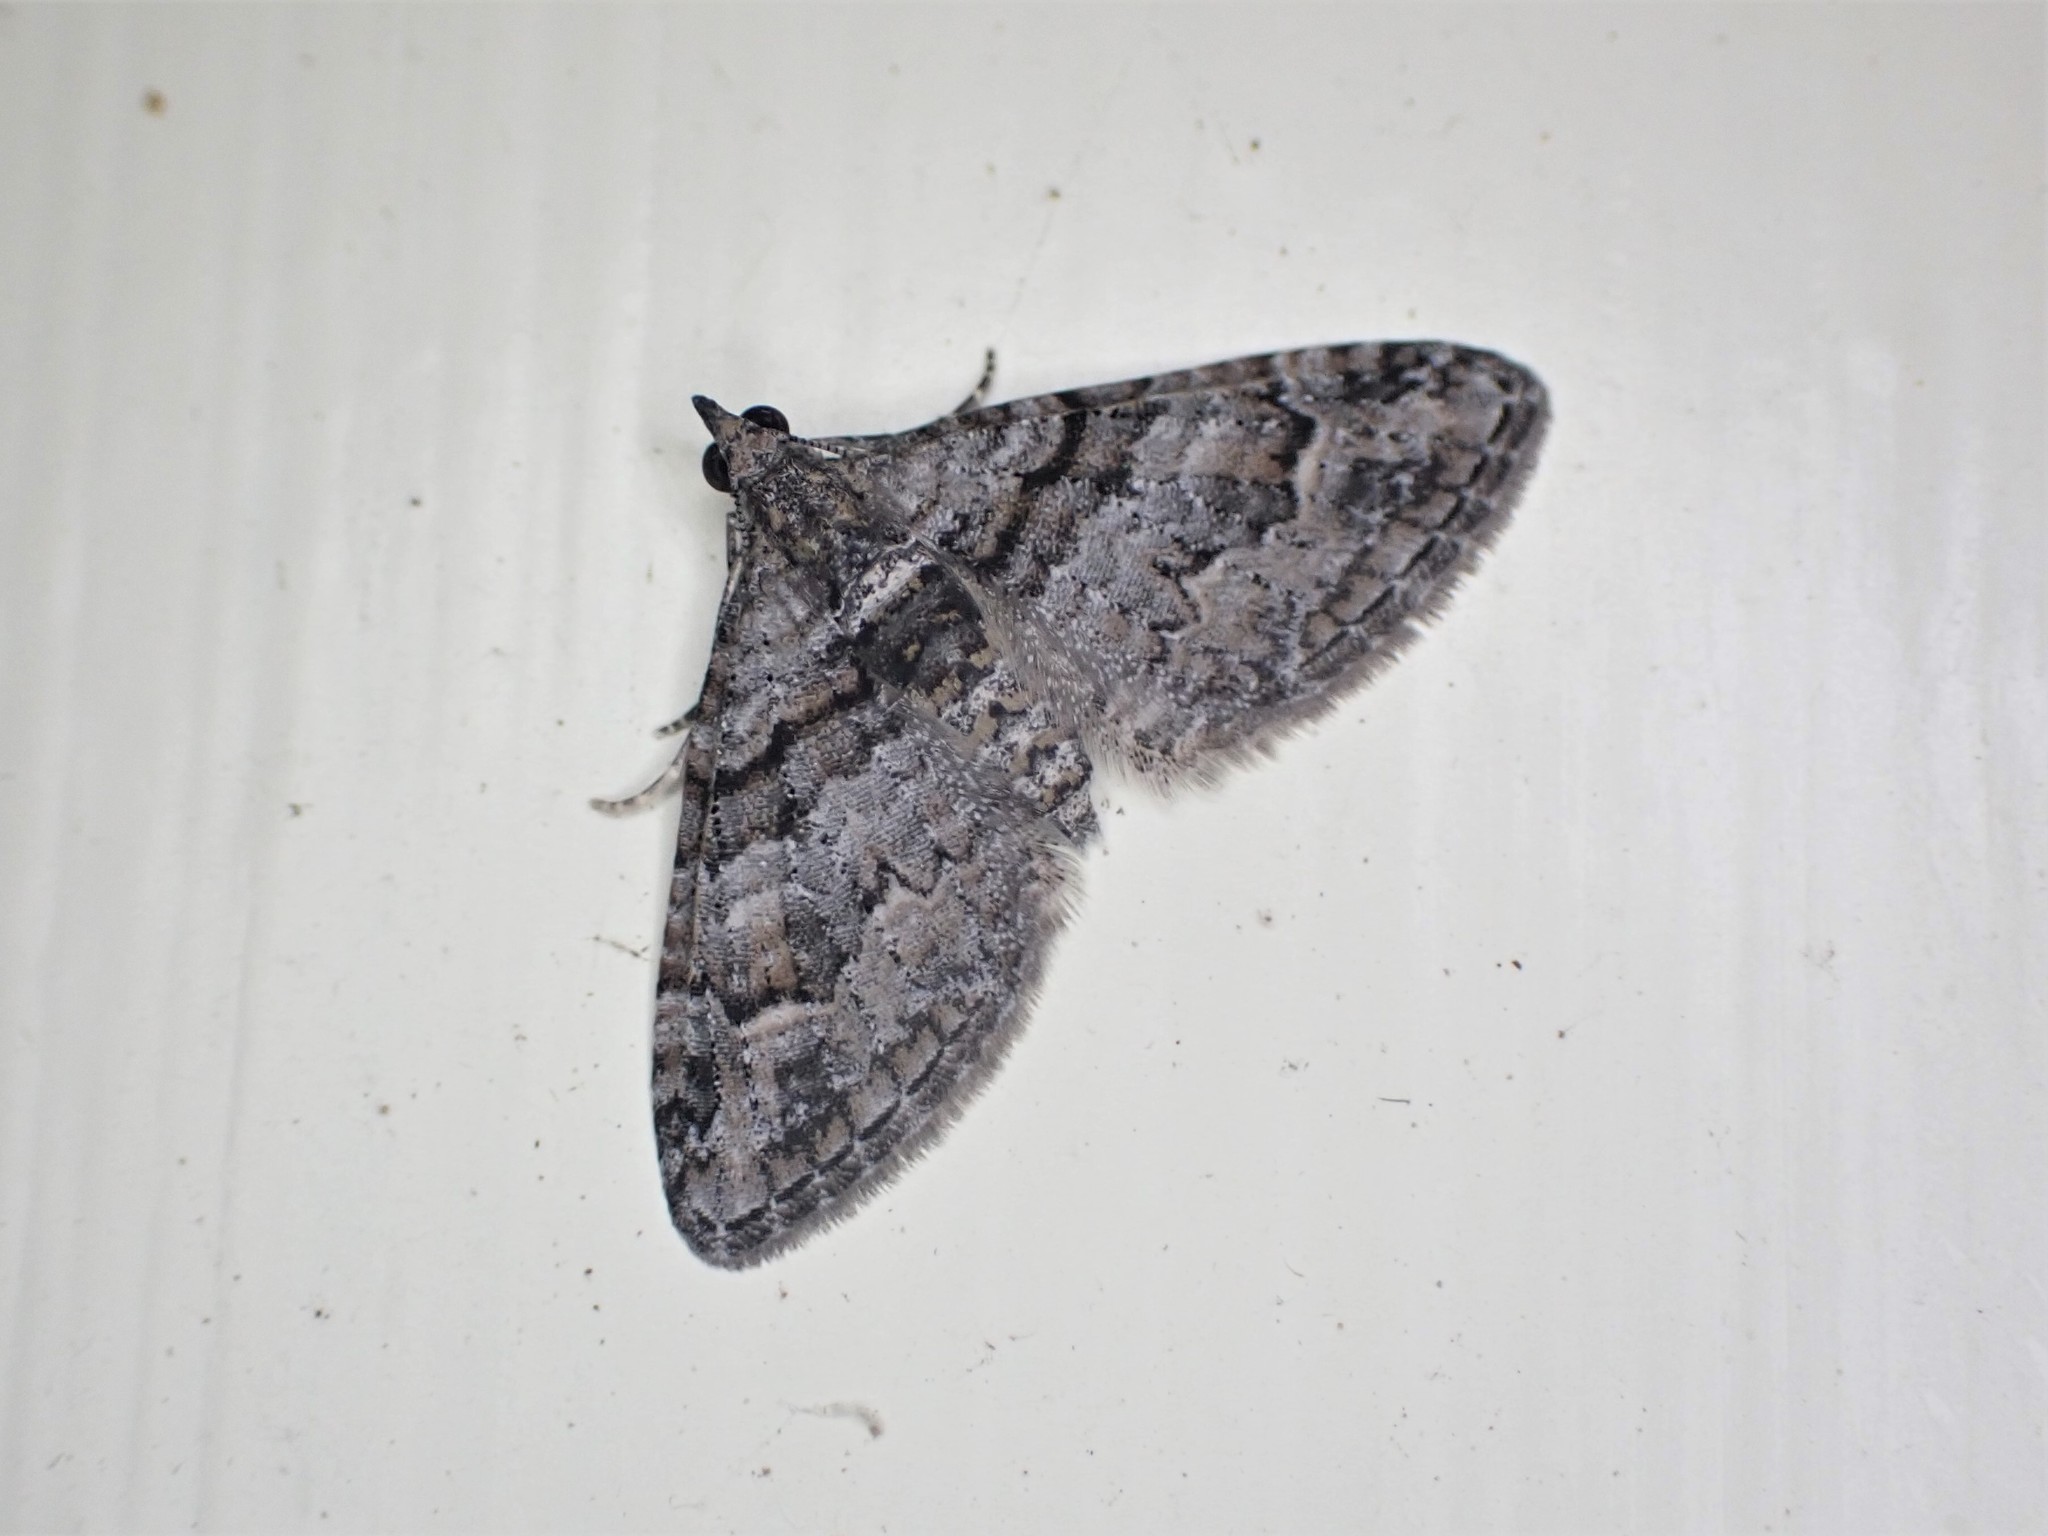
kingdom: Animalia
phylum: Arthropoda
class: Insecta
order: Lepidoptera
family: Geometridae
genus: Phrissogonus
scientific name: Phrissogonus laticostata
